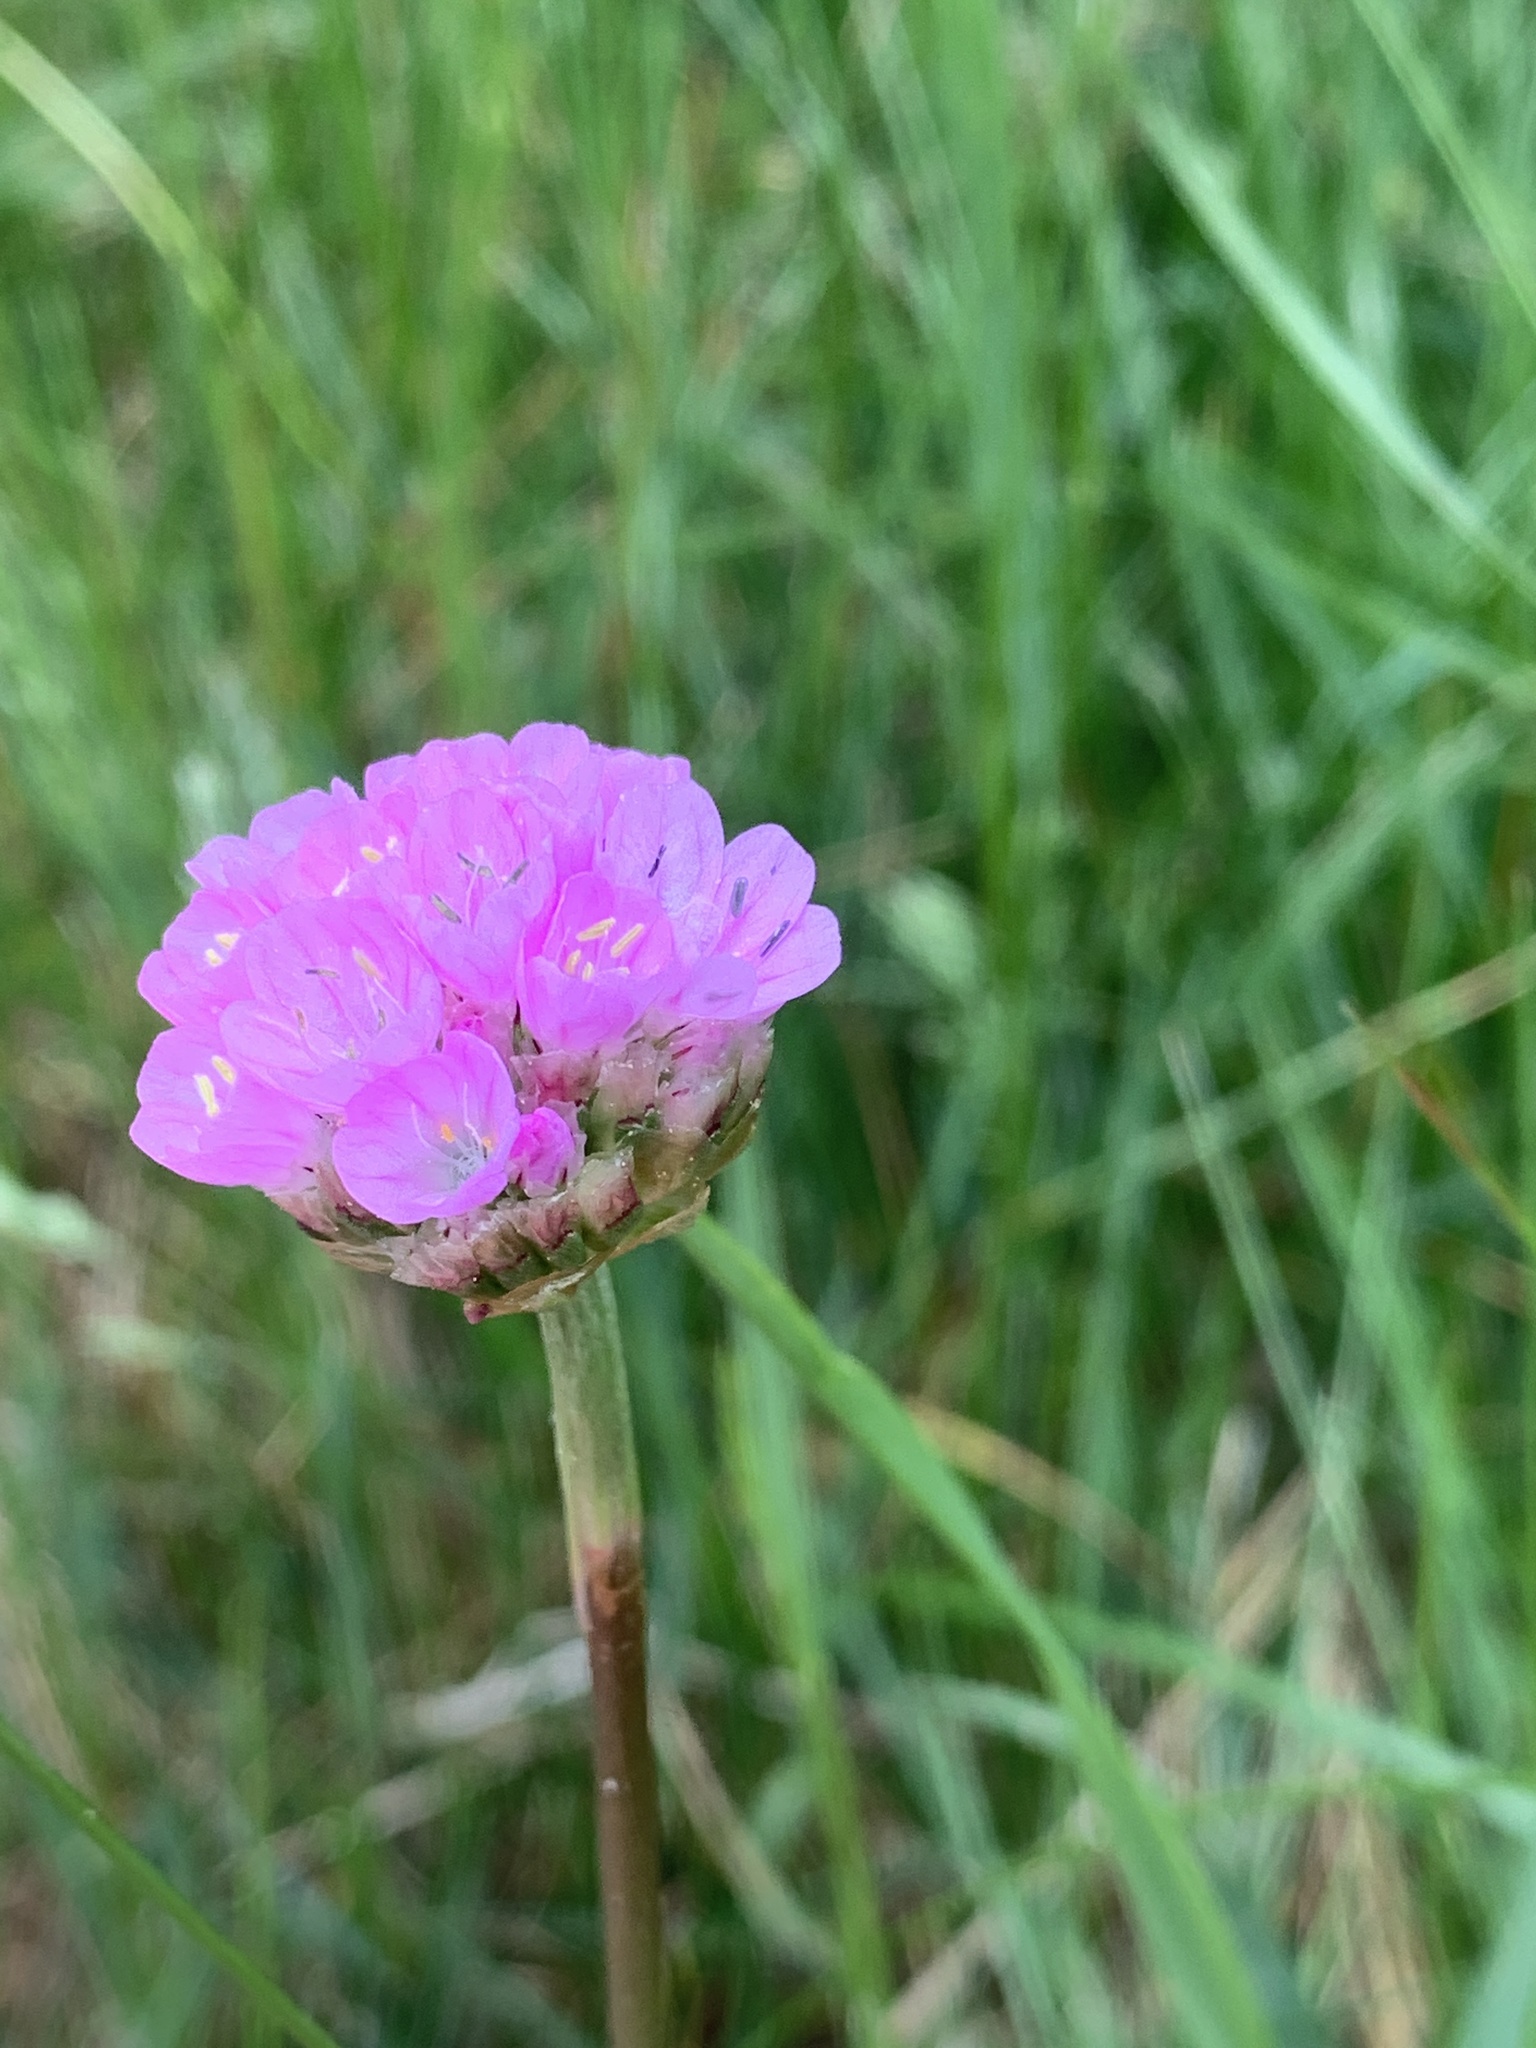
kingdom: Plantae
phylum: Tracheophyta
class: Magnoliopsida
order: Caryophyllales
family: Plumbaginaceae
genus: Armeria
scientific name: Armeria maritima
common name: Thrift
